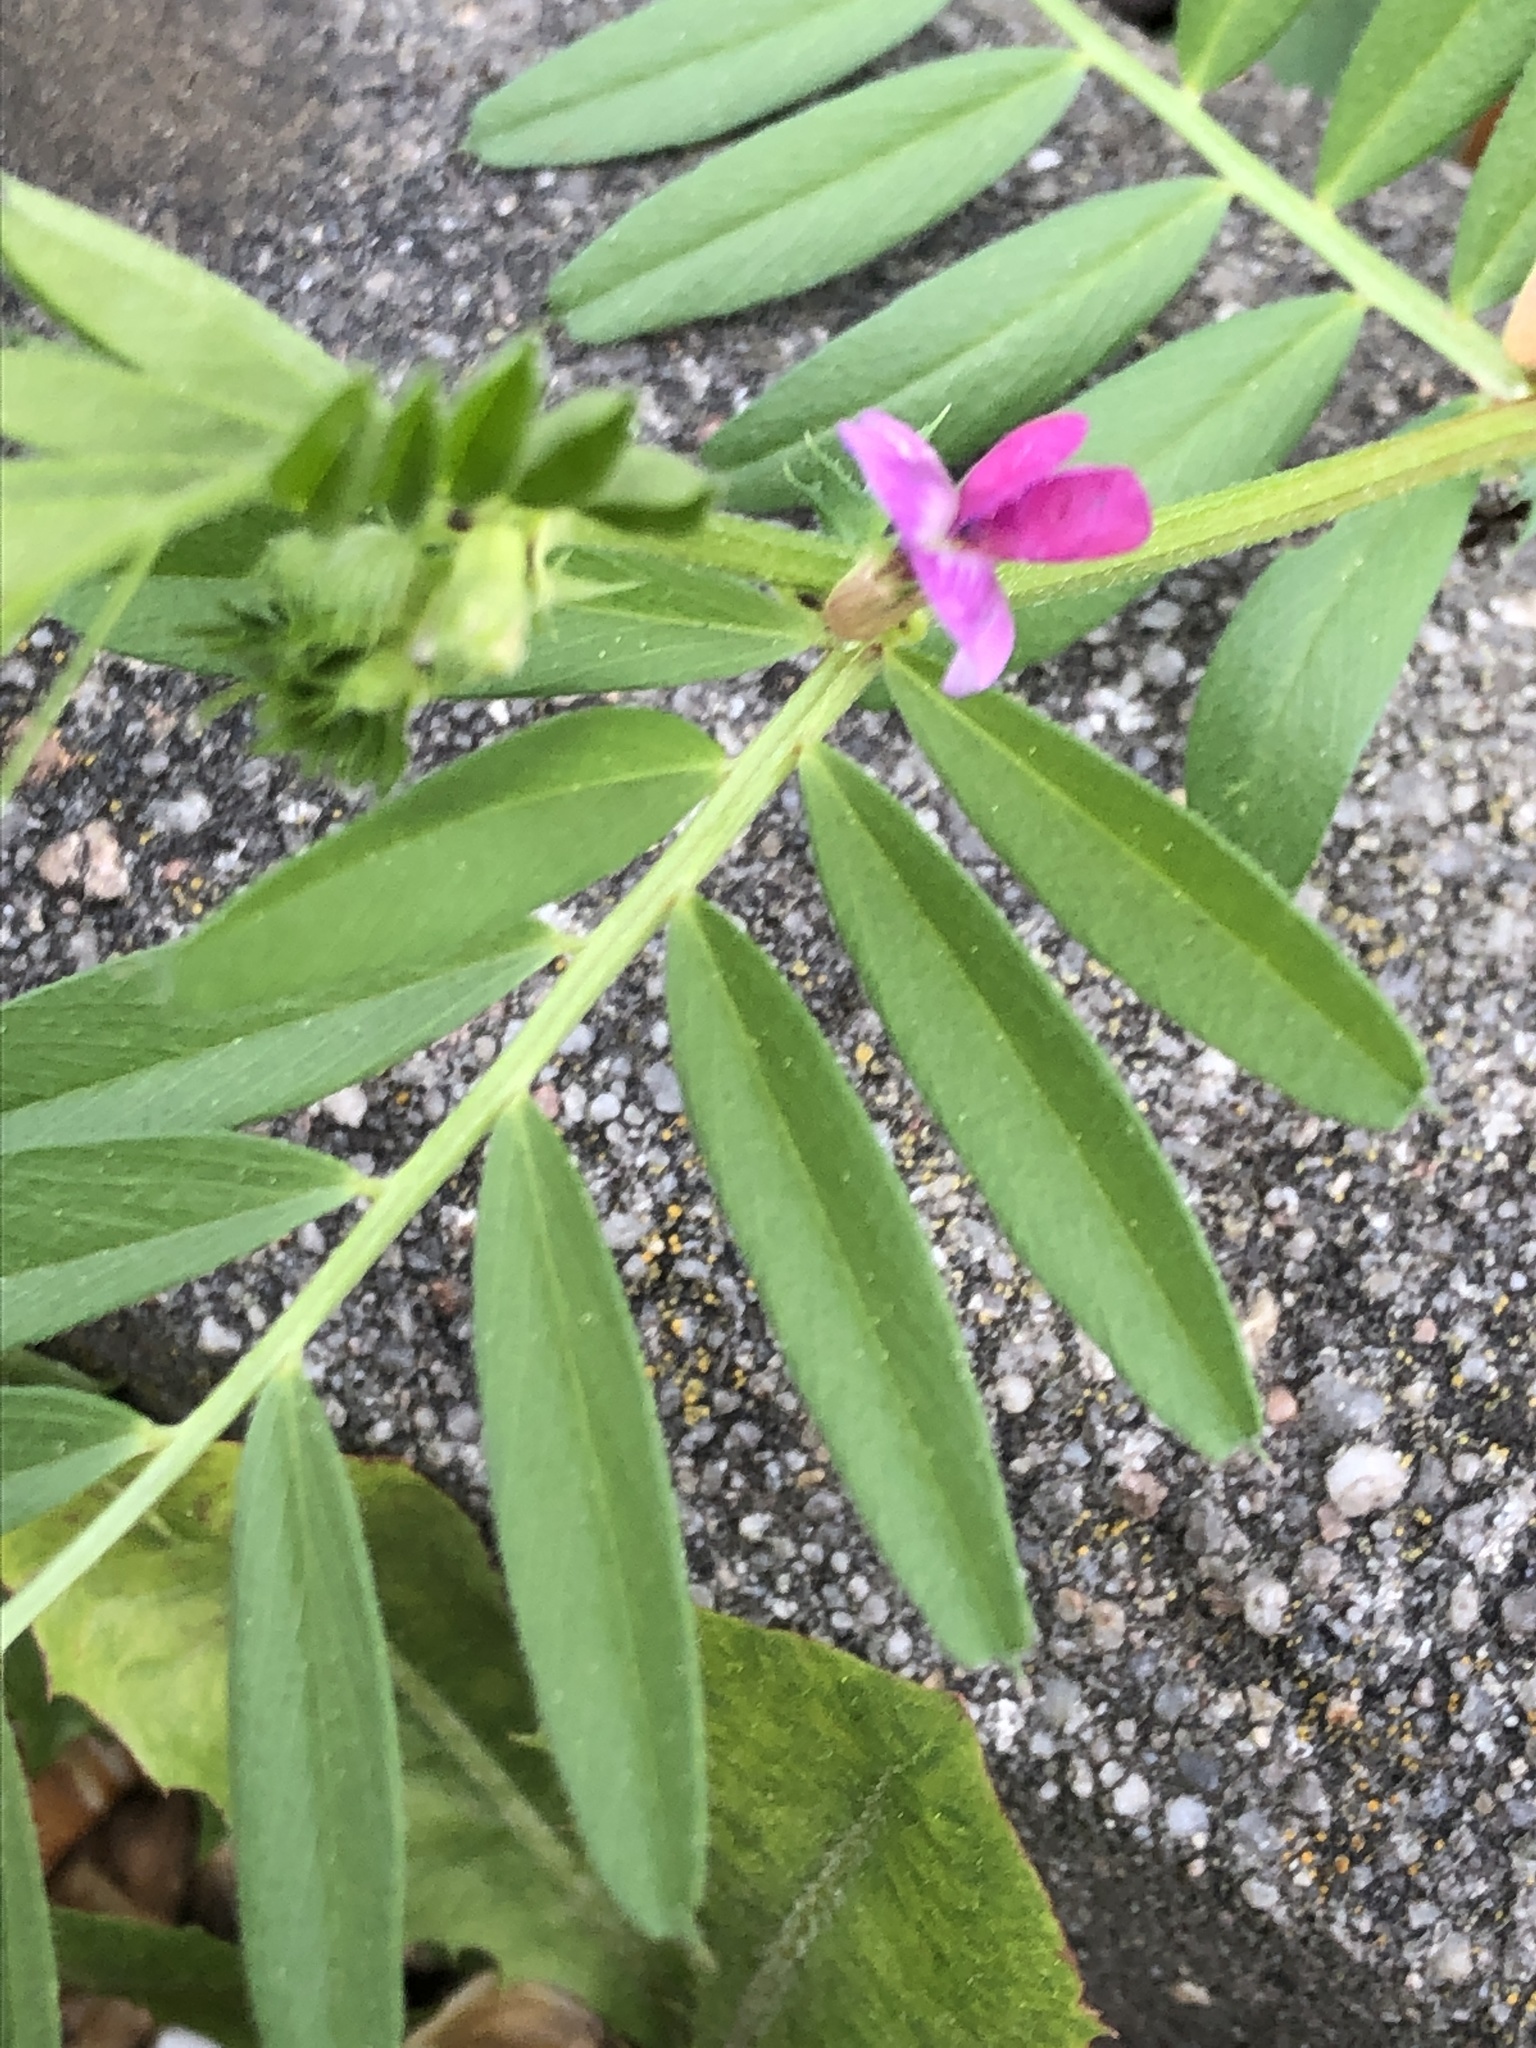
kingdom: Plantae
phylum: Tracheophyta
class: Magnoliopsida
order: Fabales
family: Fabaceae
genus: Vicia
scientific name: Vicia sativa
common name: Garden vetch
